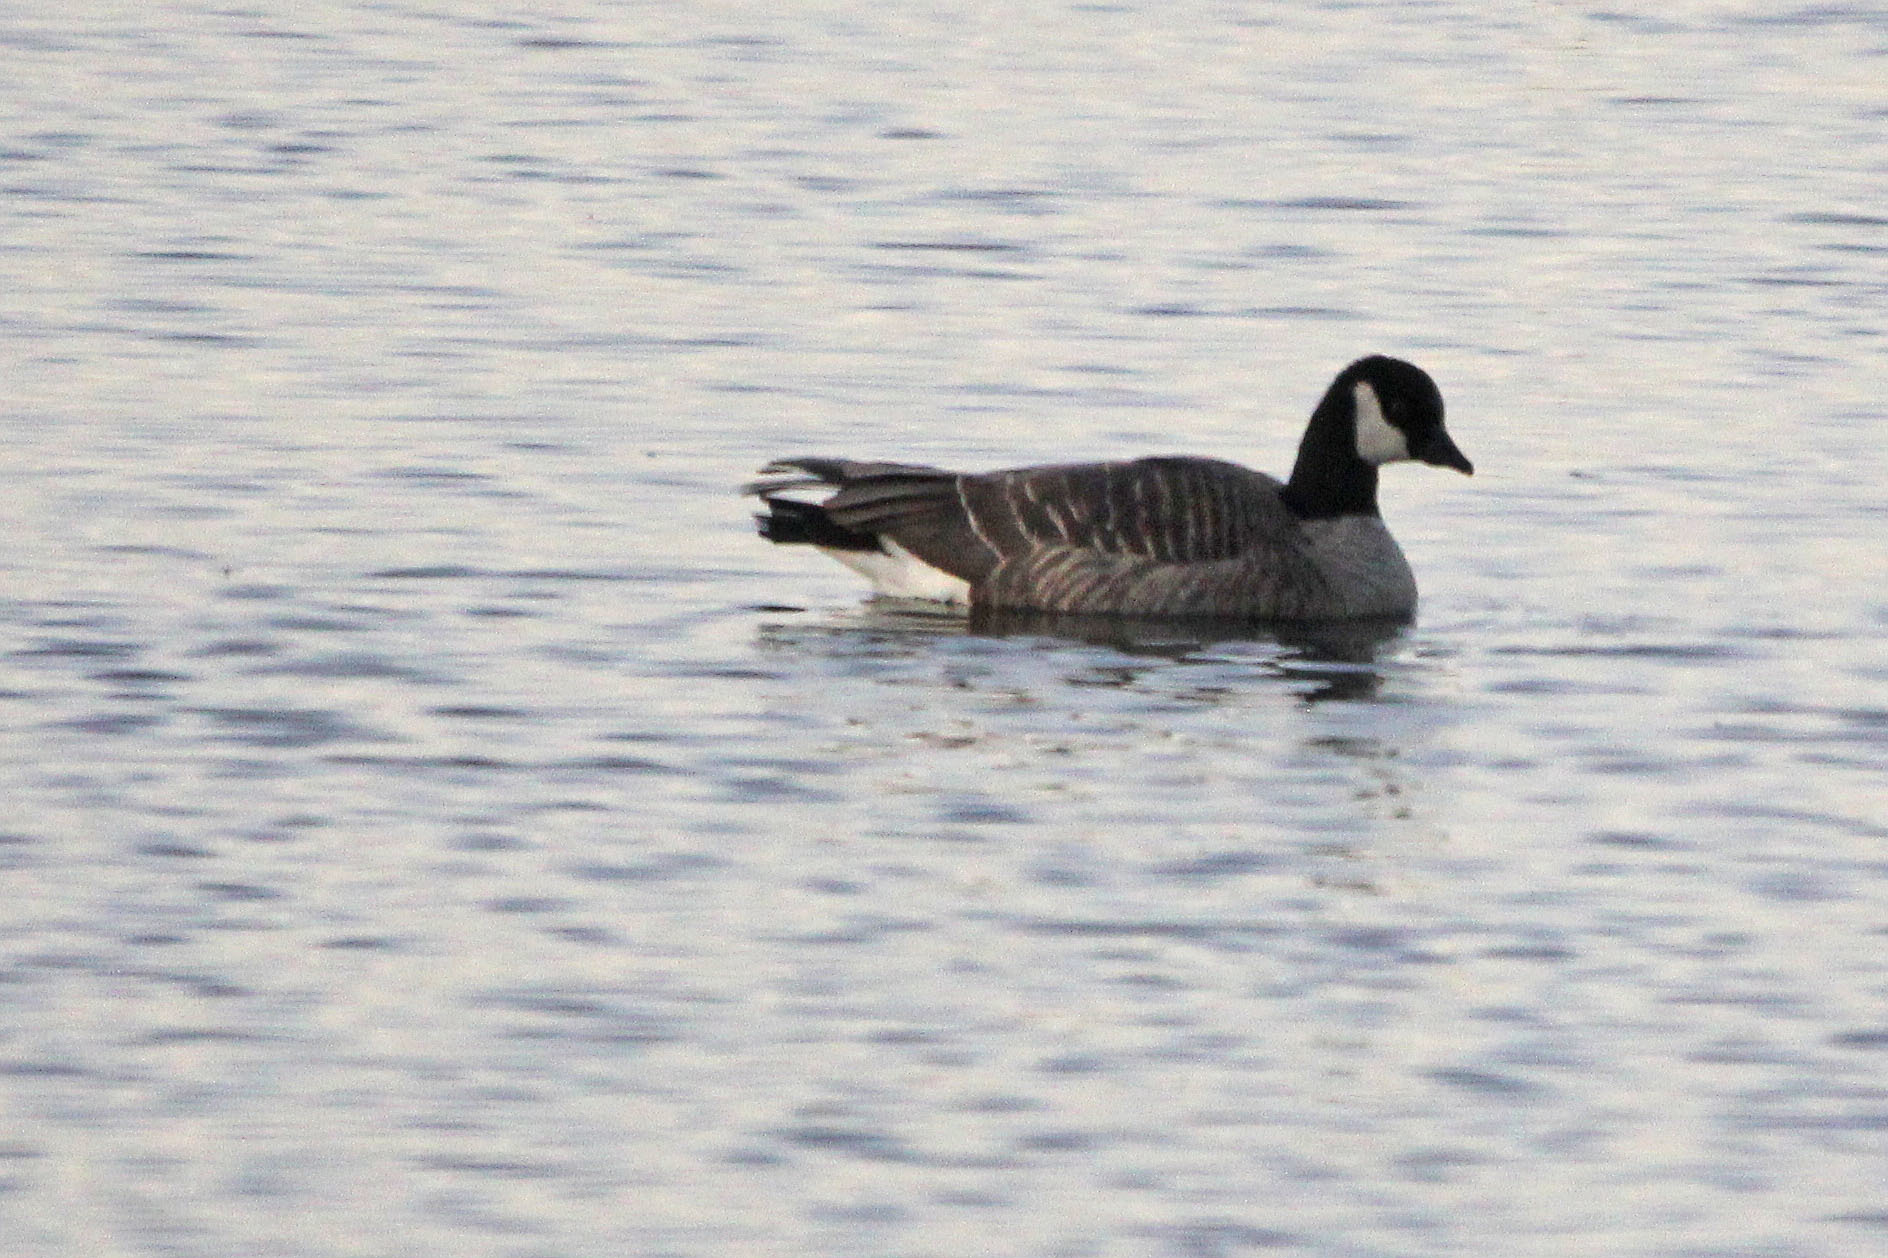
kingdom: Animalia
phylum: Chordata
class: Aves
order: Anseriformes
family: Anatidae
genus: Branta
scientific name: Branta hutchinsii
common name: Cackling goose
